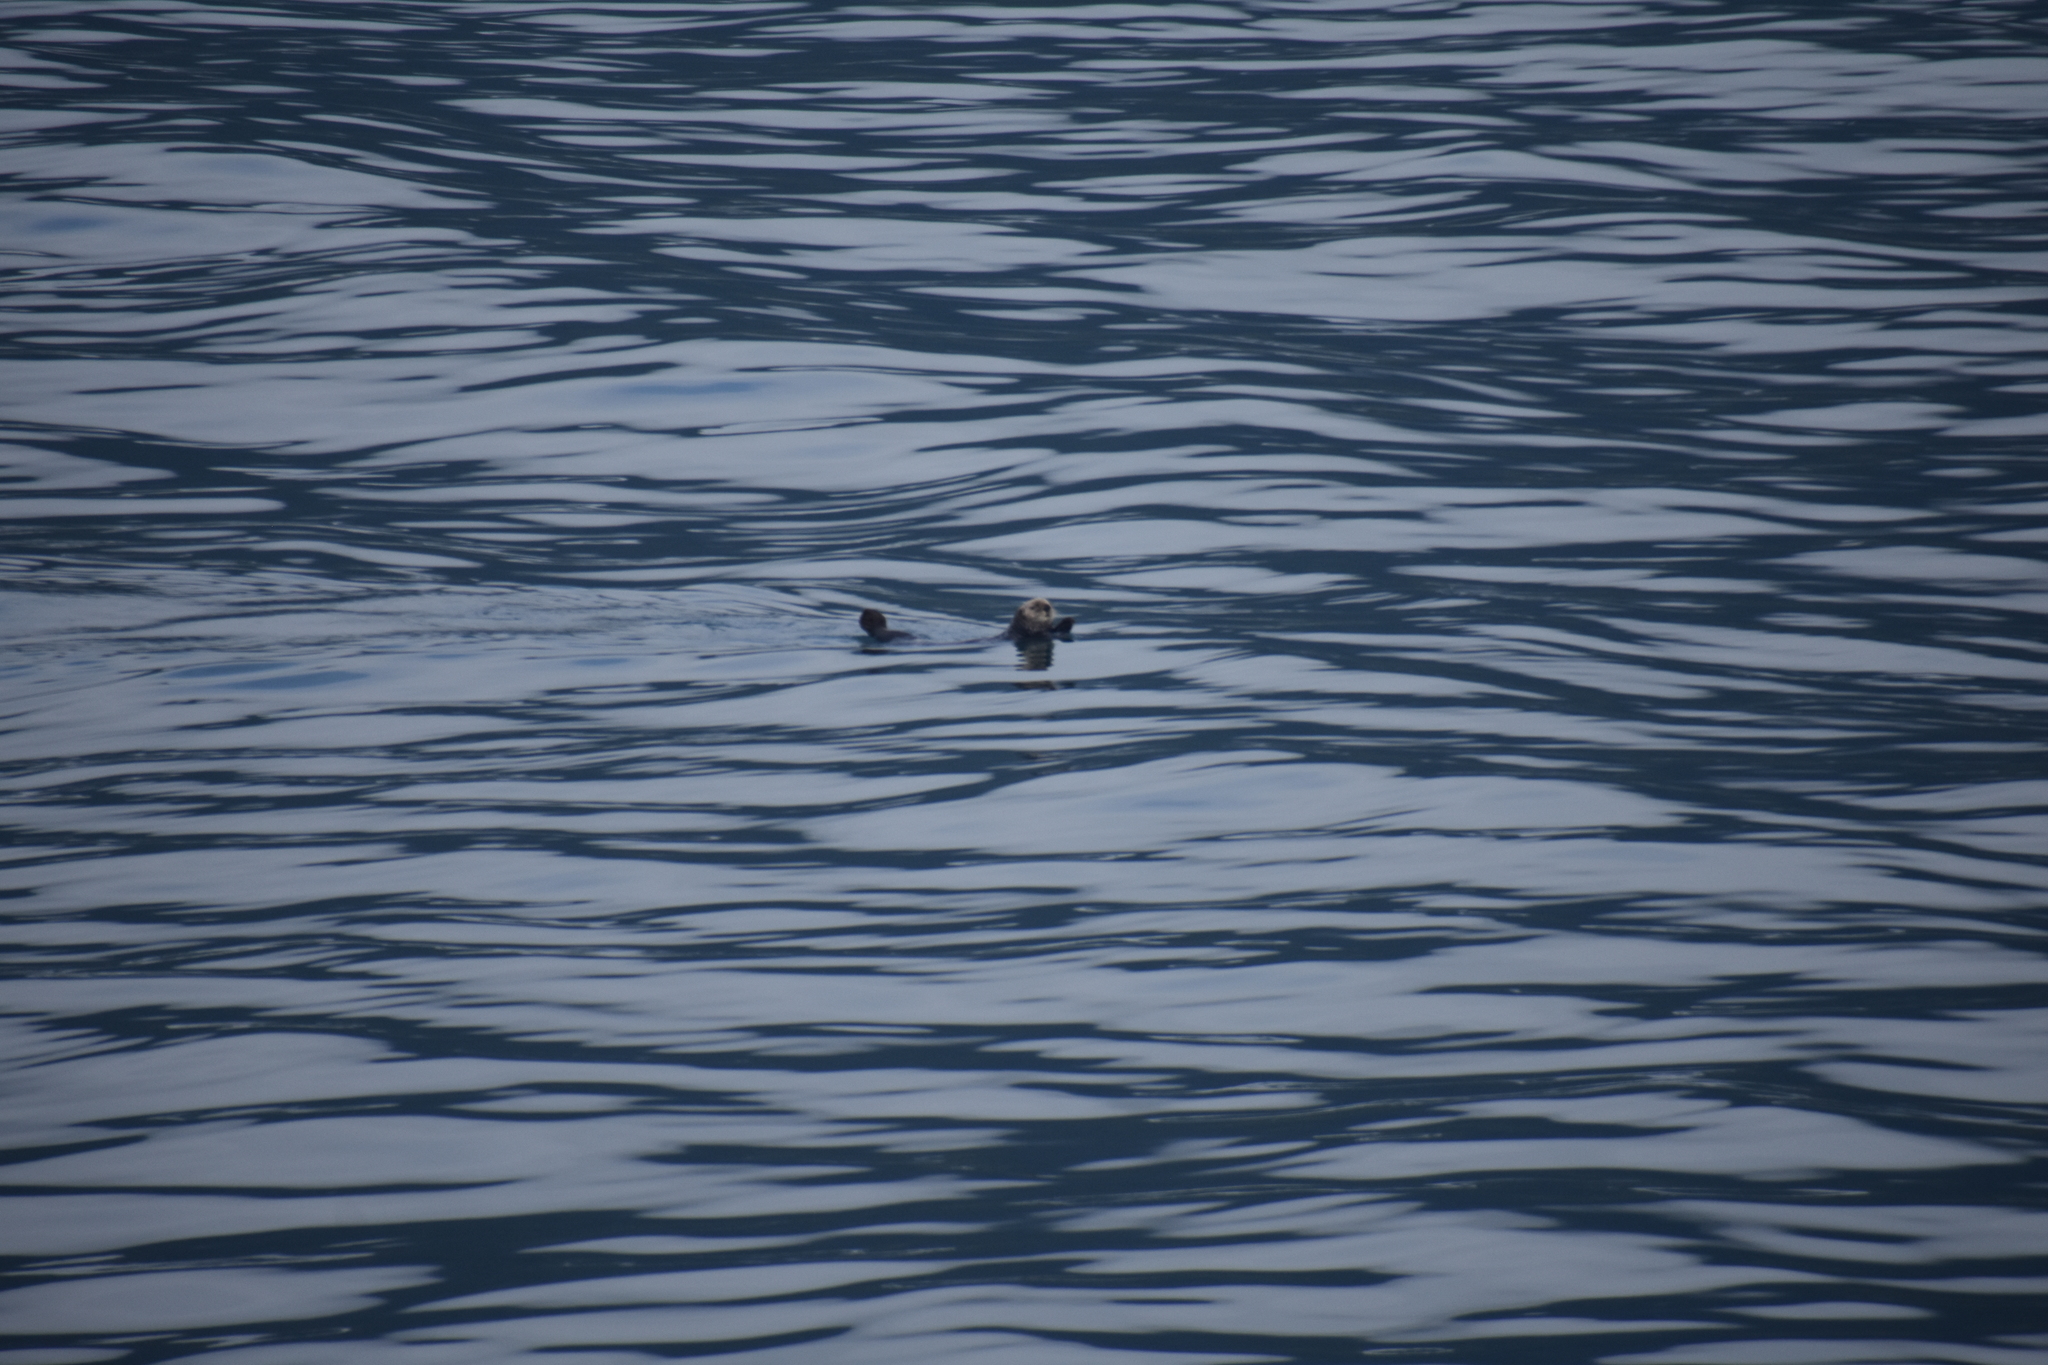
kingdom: Animalia
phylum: Chordata
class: Mammalia
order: Carnivora
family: Mustelidae
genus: Enhydra
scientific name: Enhydra lutris
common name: Sea otter
